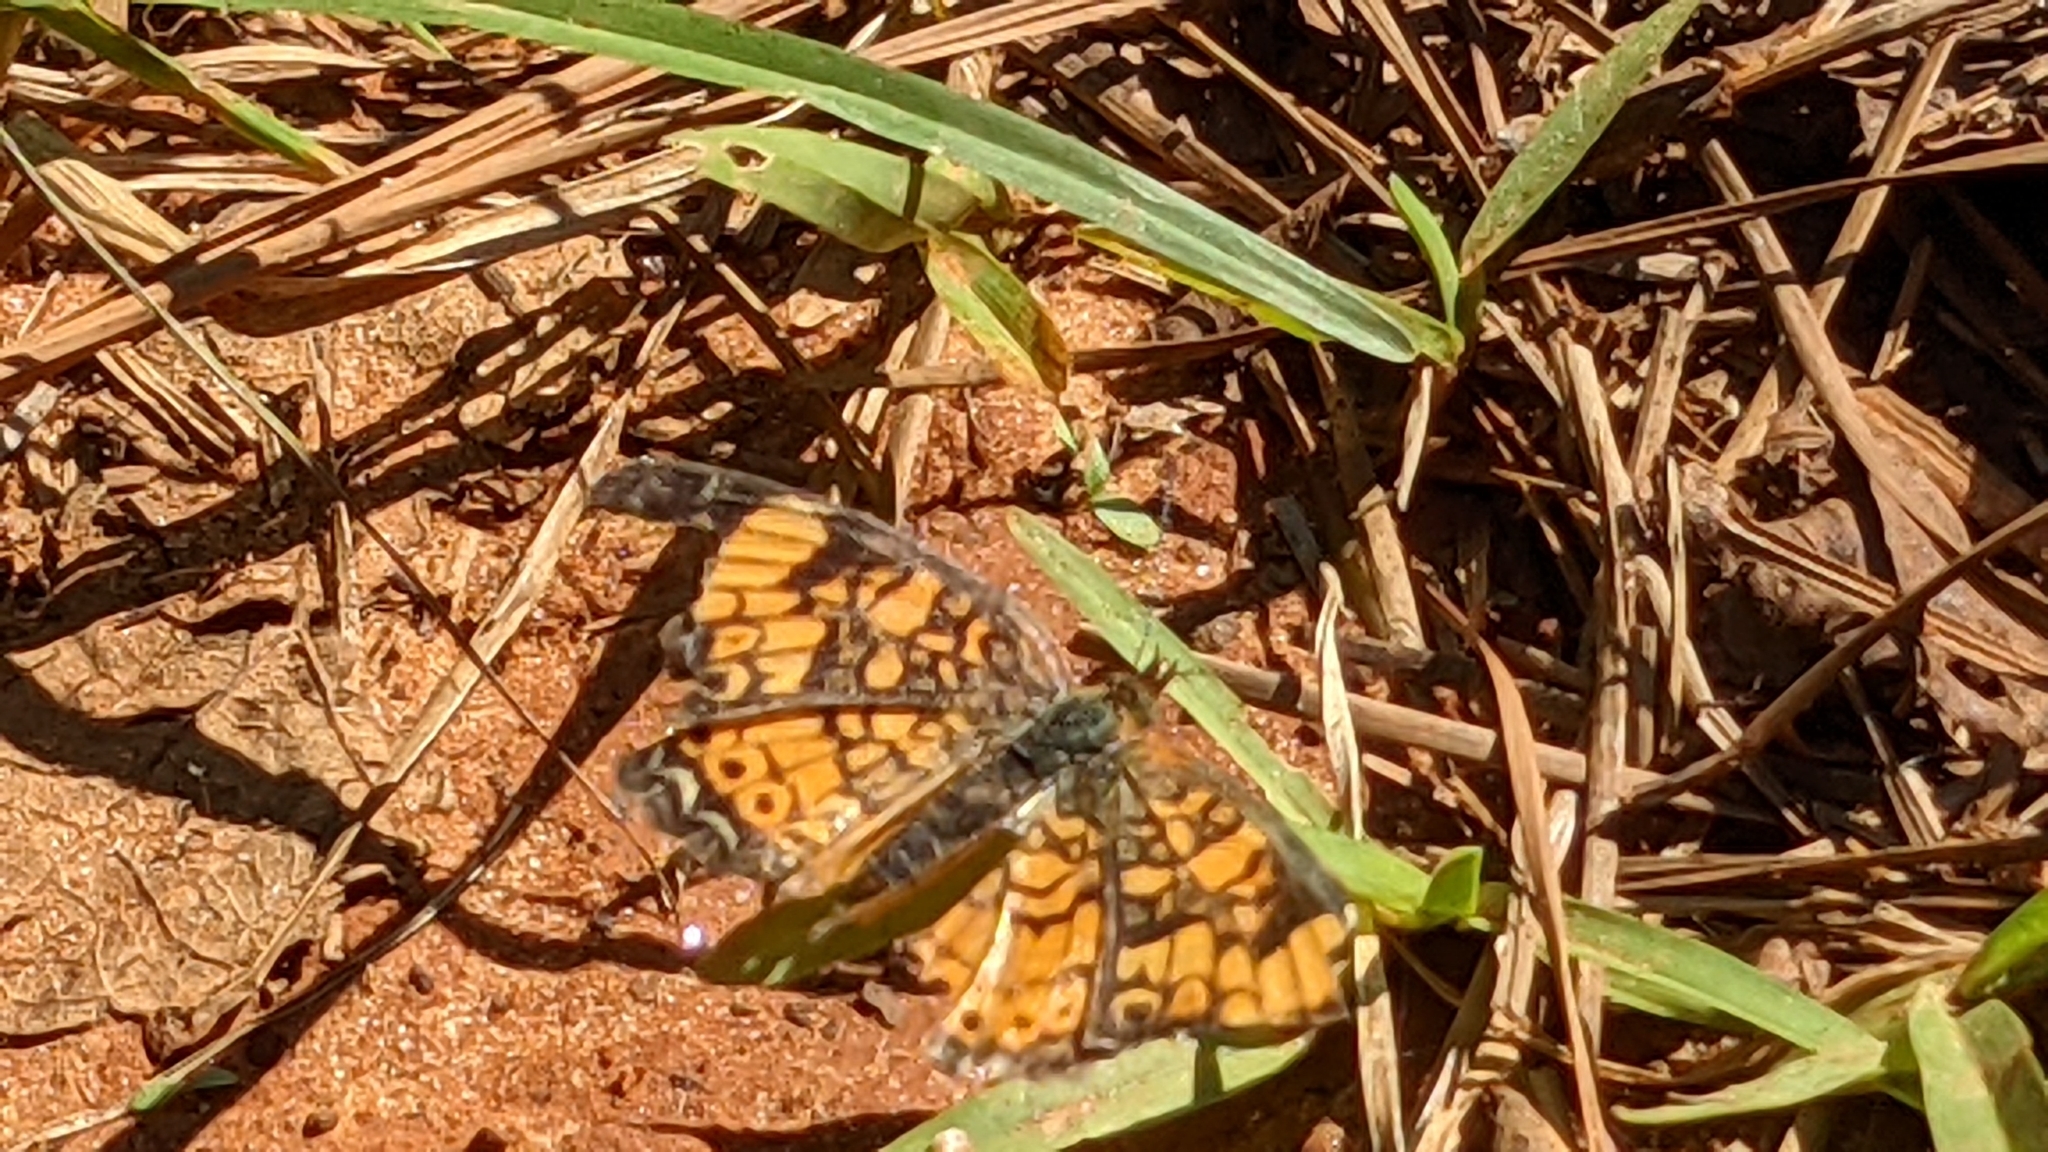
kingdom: Animalia
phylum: Arthropoda
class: Insecta
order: Lepidoptera
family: Nymphalidae
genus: Phyciodes
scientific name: Phyciodes tharos
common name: Pearl crescent
